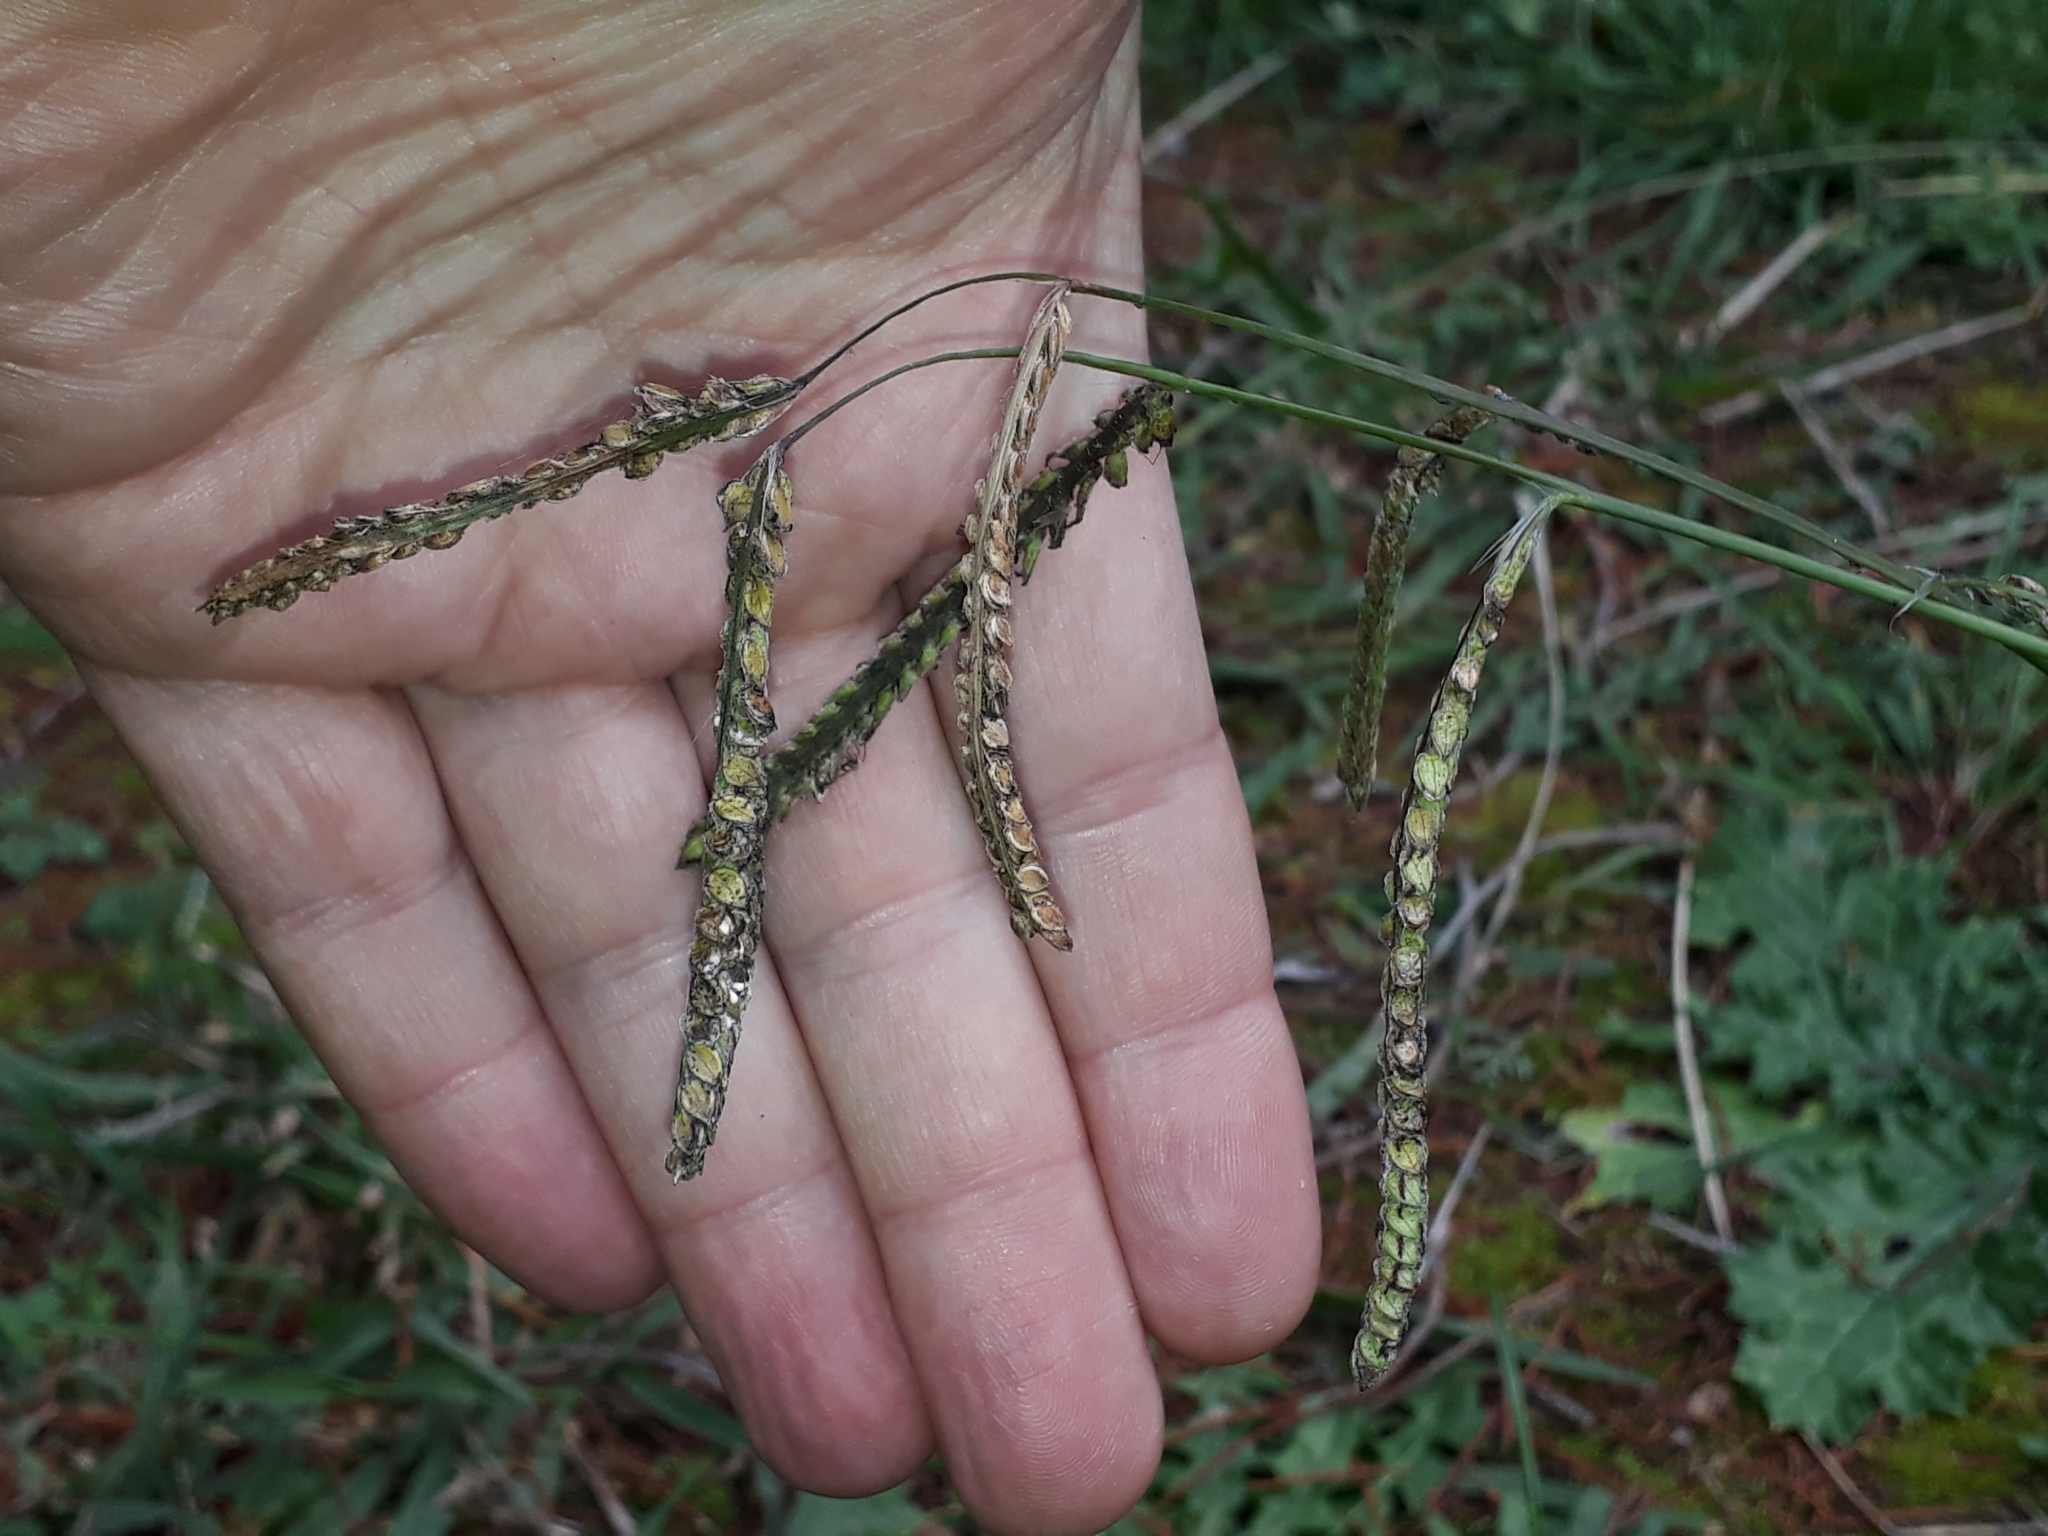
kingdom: Plantae
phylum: Tracheophyta
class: Liliopsida
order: Poales
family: Poaceae
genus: Paspalum
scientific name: Paspalum dilatatum
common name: Dallisgrass
